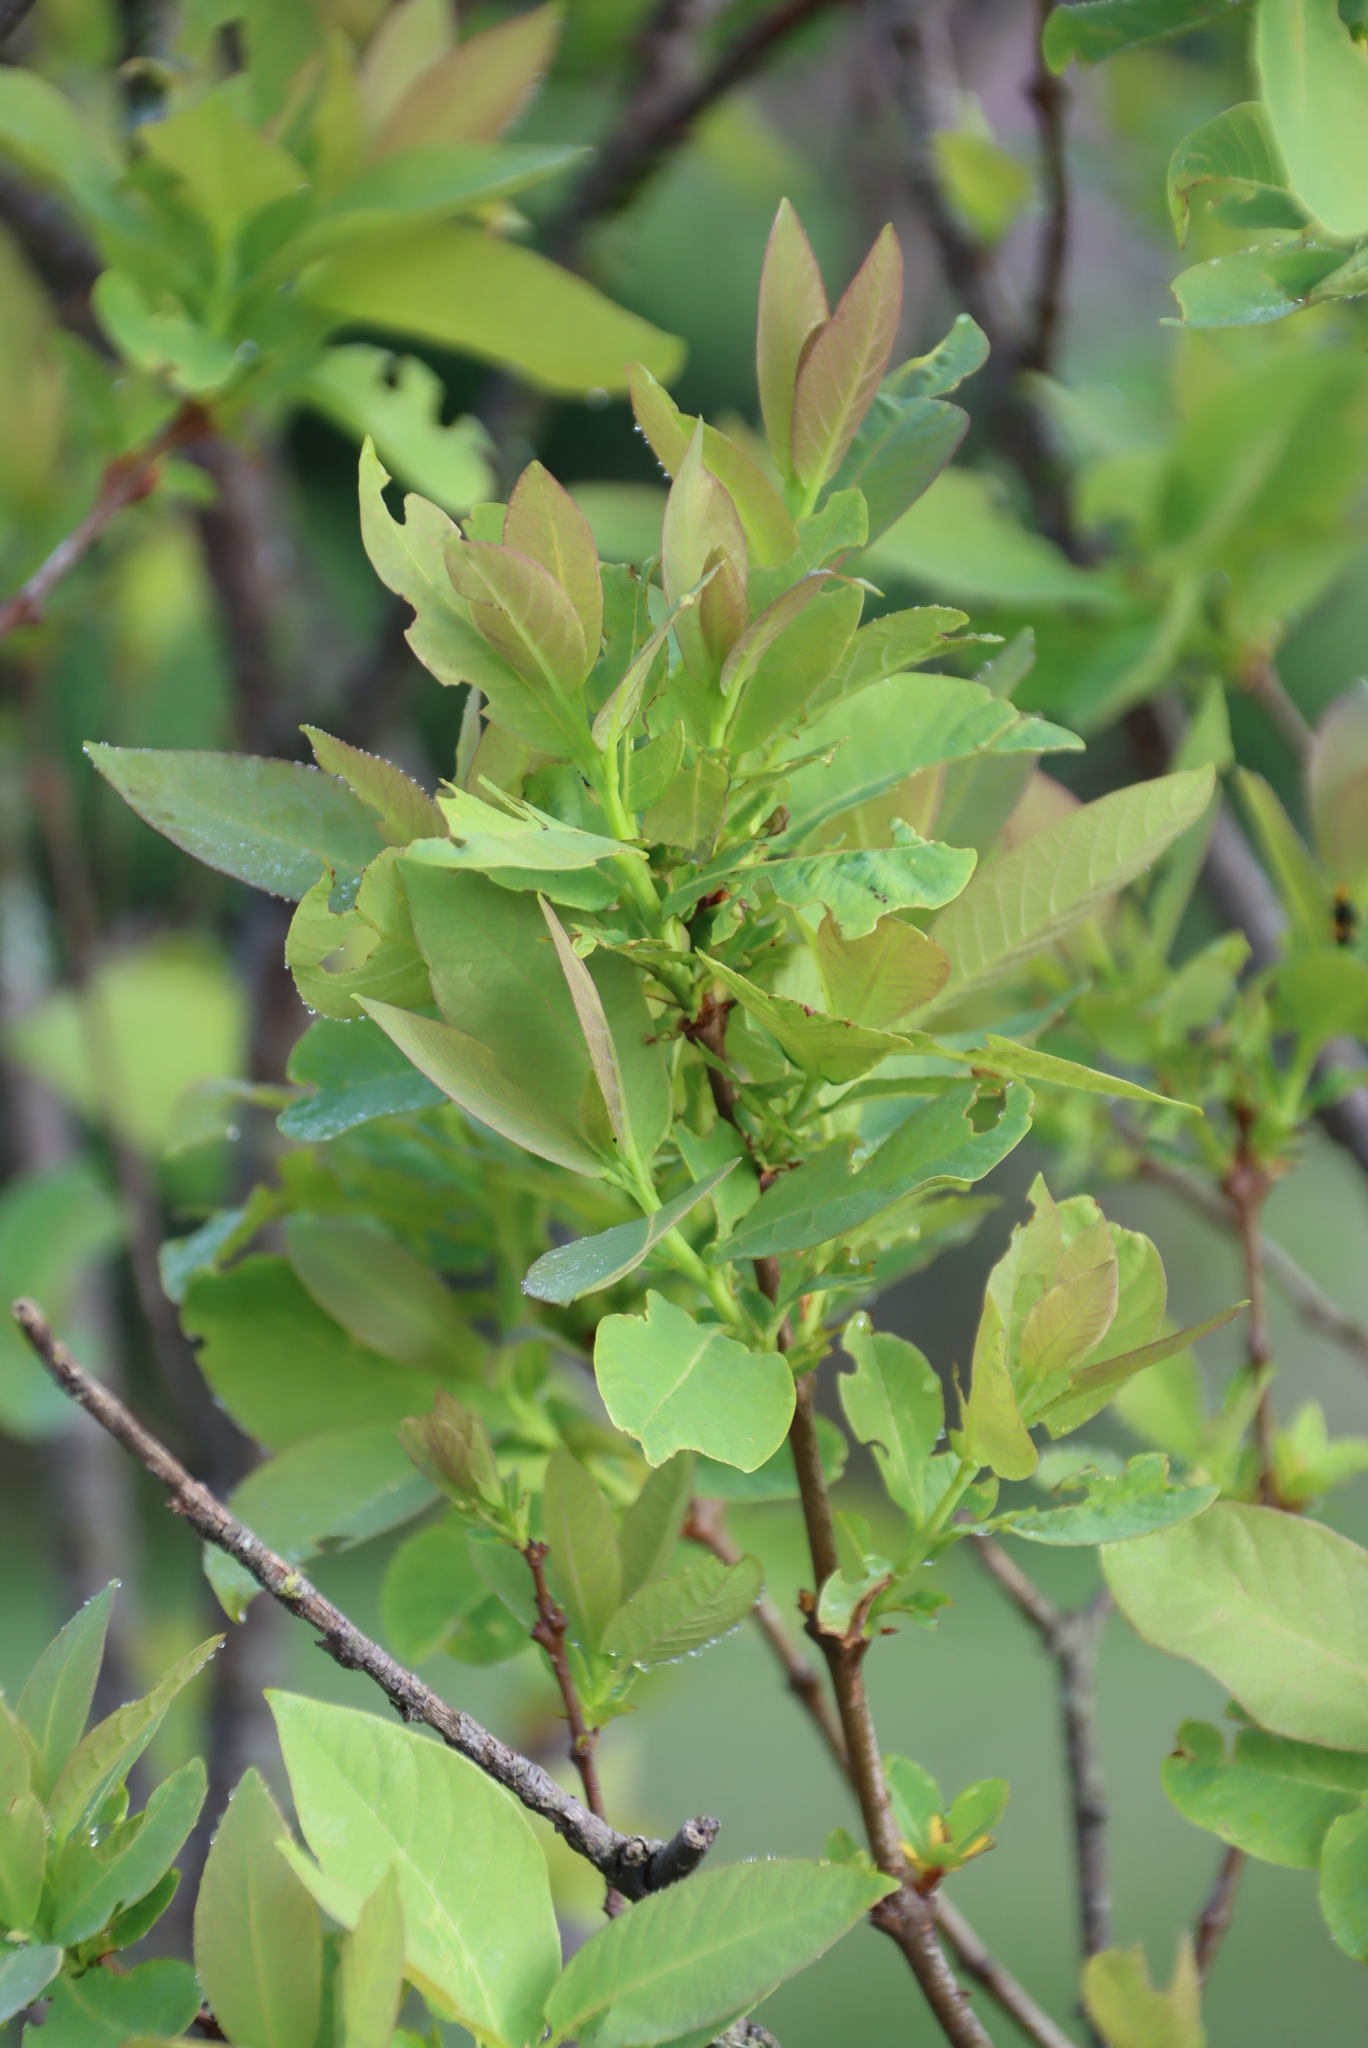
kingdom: Plantae
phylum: Tracheophyta
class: Magnoliopsida
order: Malvales
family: Thymelaeaceae
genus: Dais
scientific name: Dais cotinifolia
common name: Pompon tree
